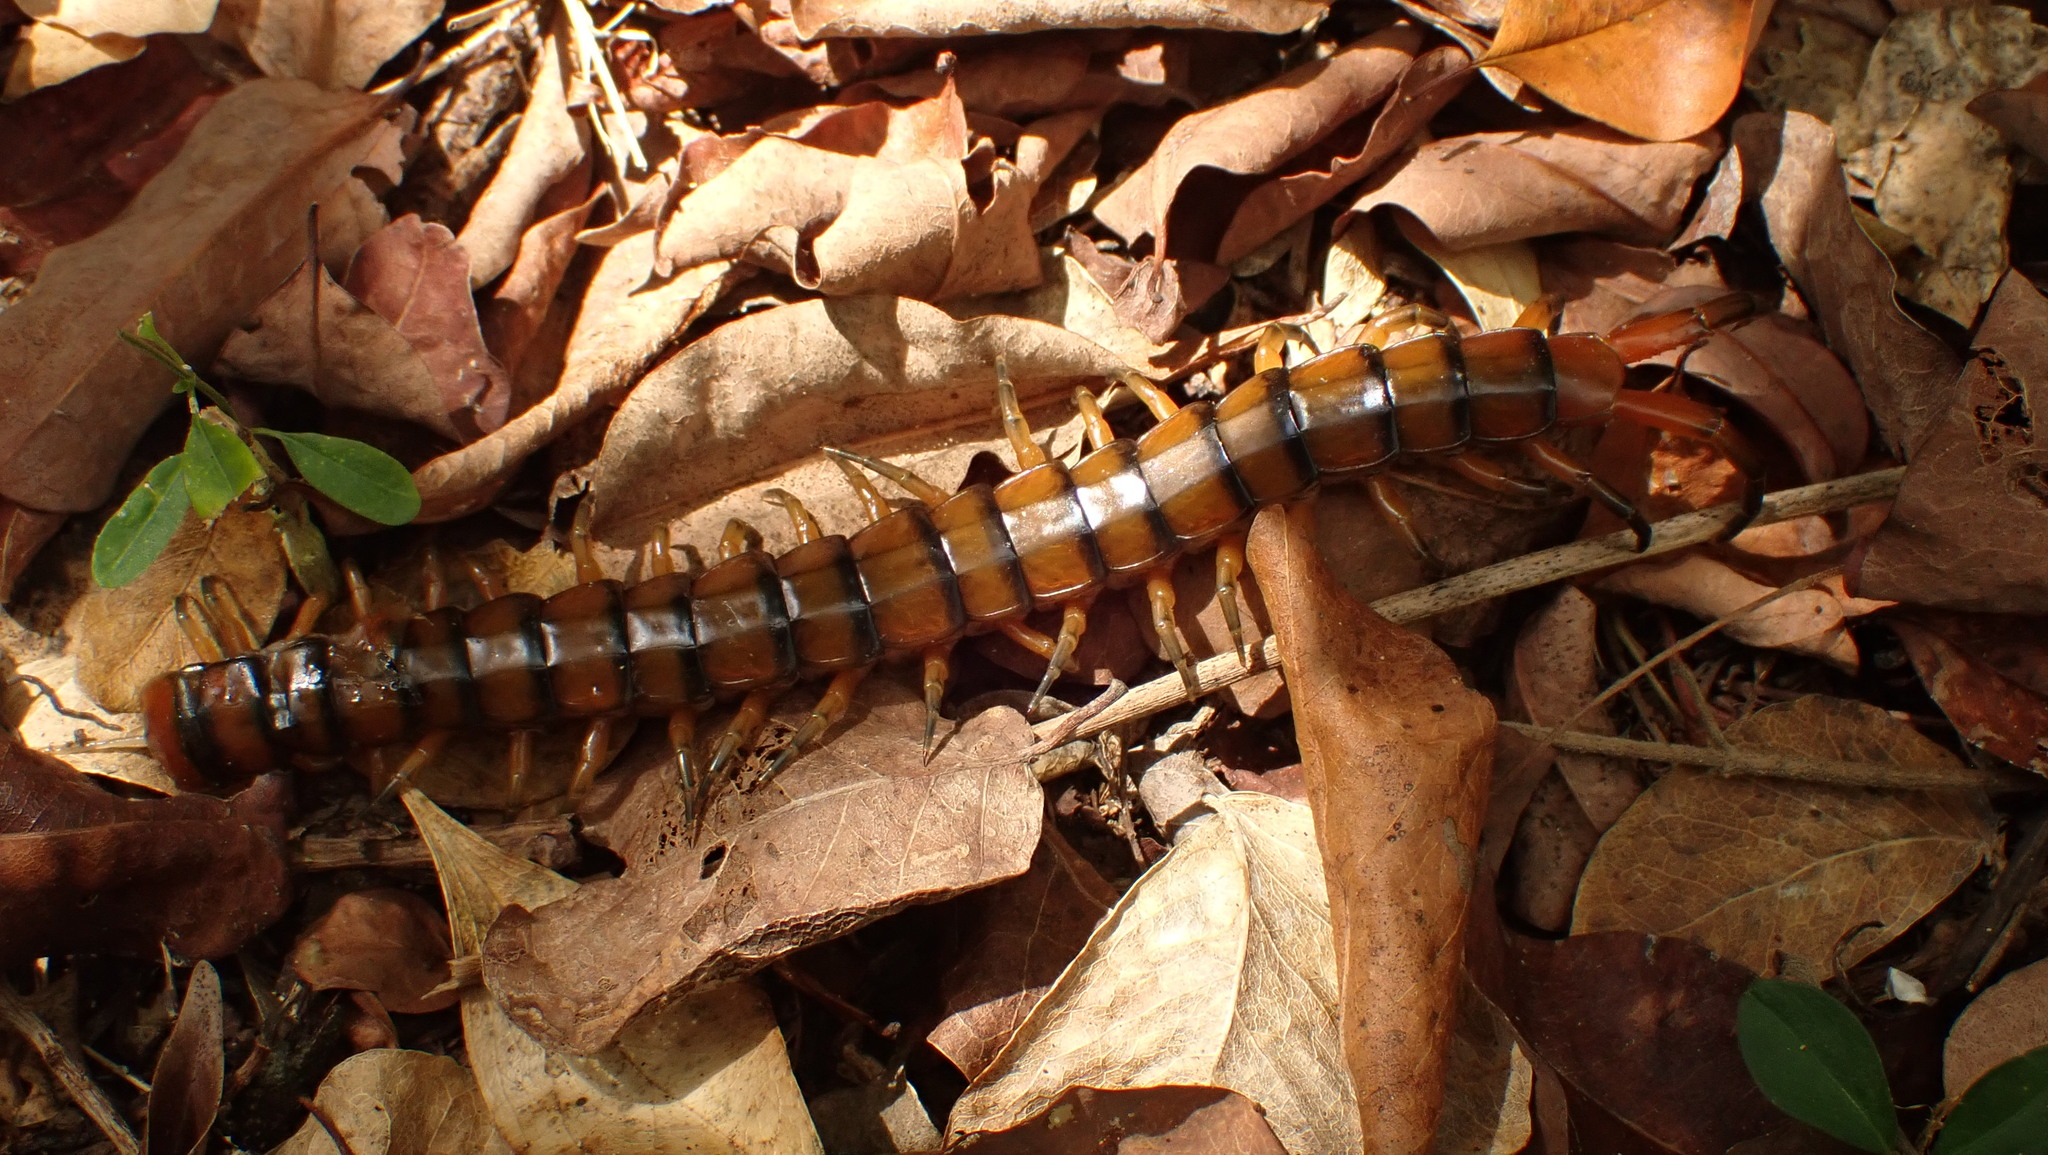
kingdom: Animalia
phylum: Arthropoda
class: Chilopoda
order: Scolopendromorpha
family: Scolopendridae
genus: Scolopendra
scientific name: Scolopendra alternans
